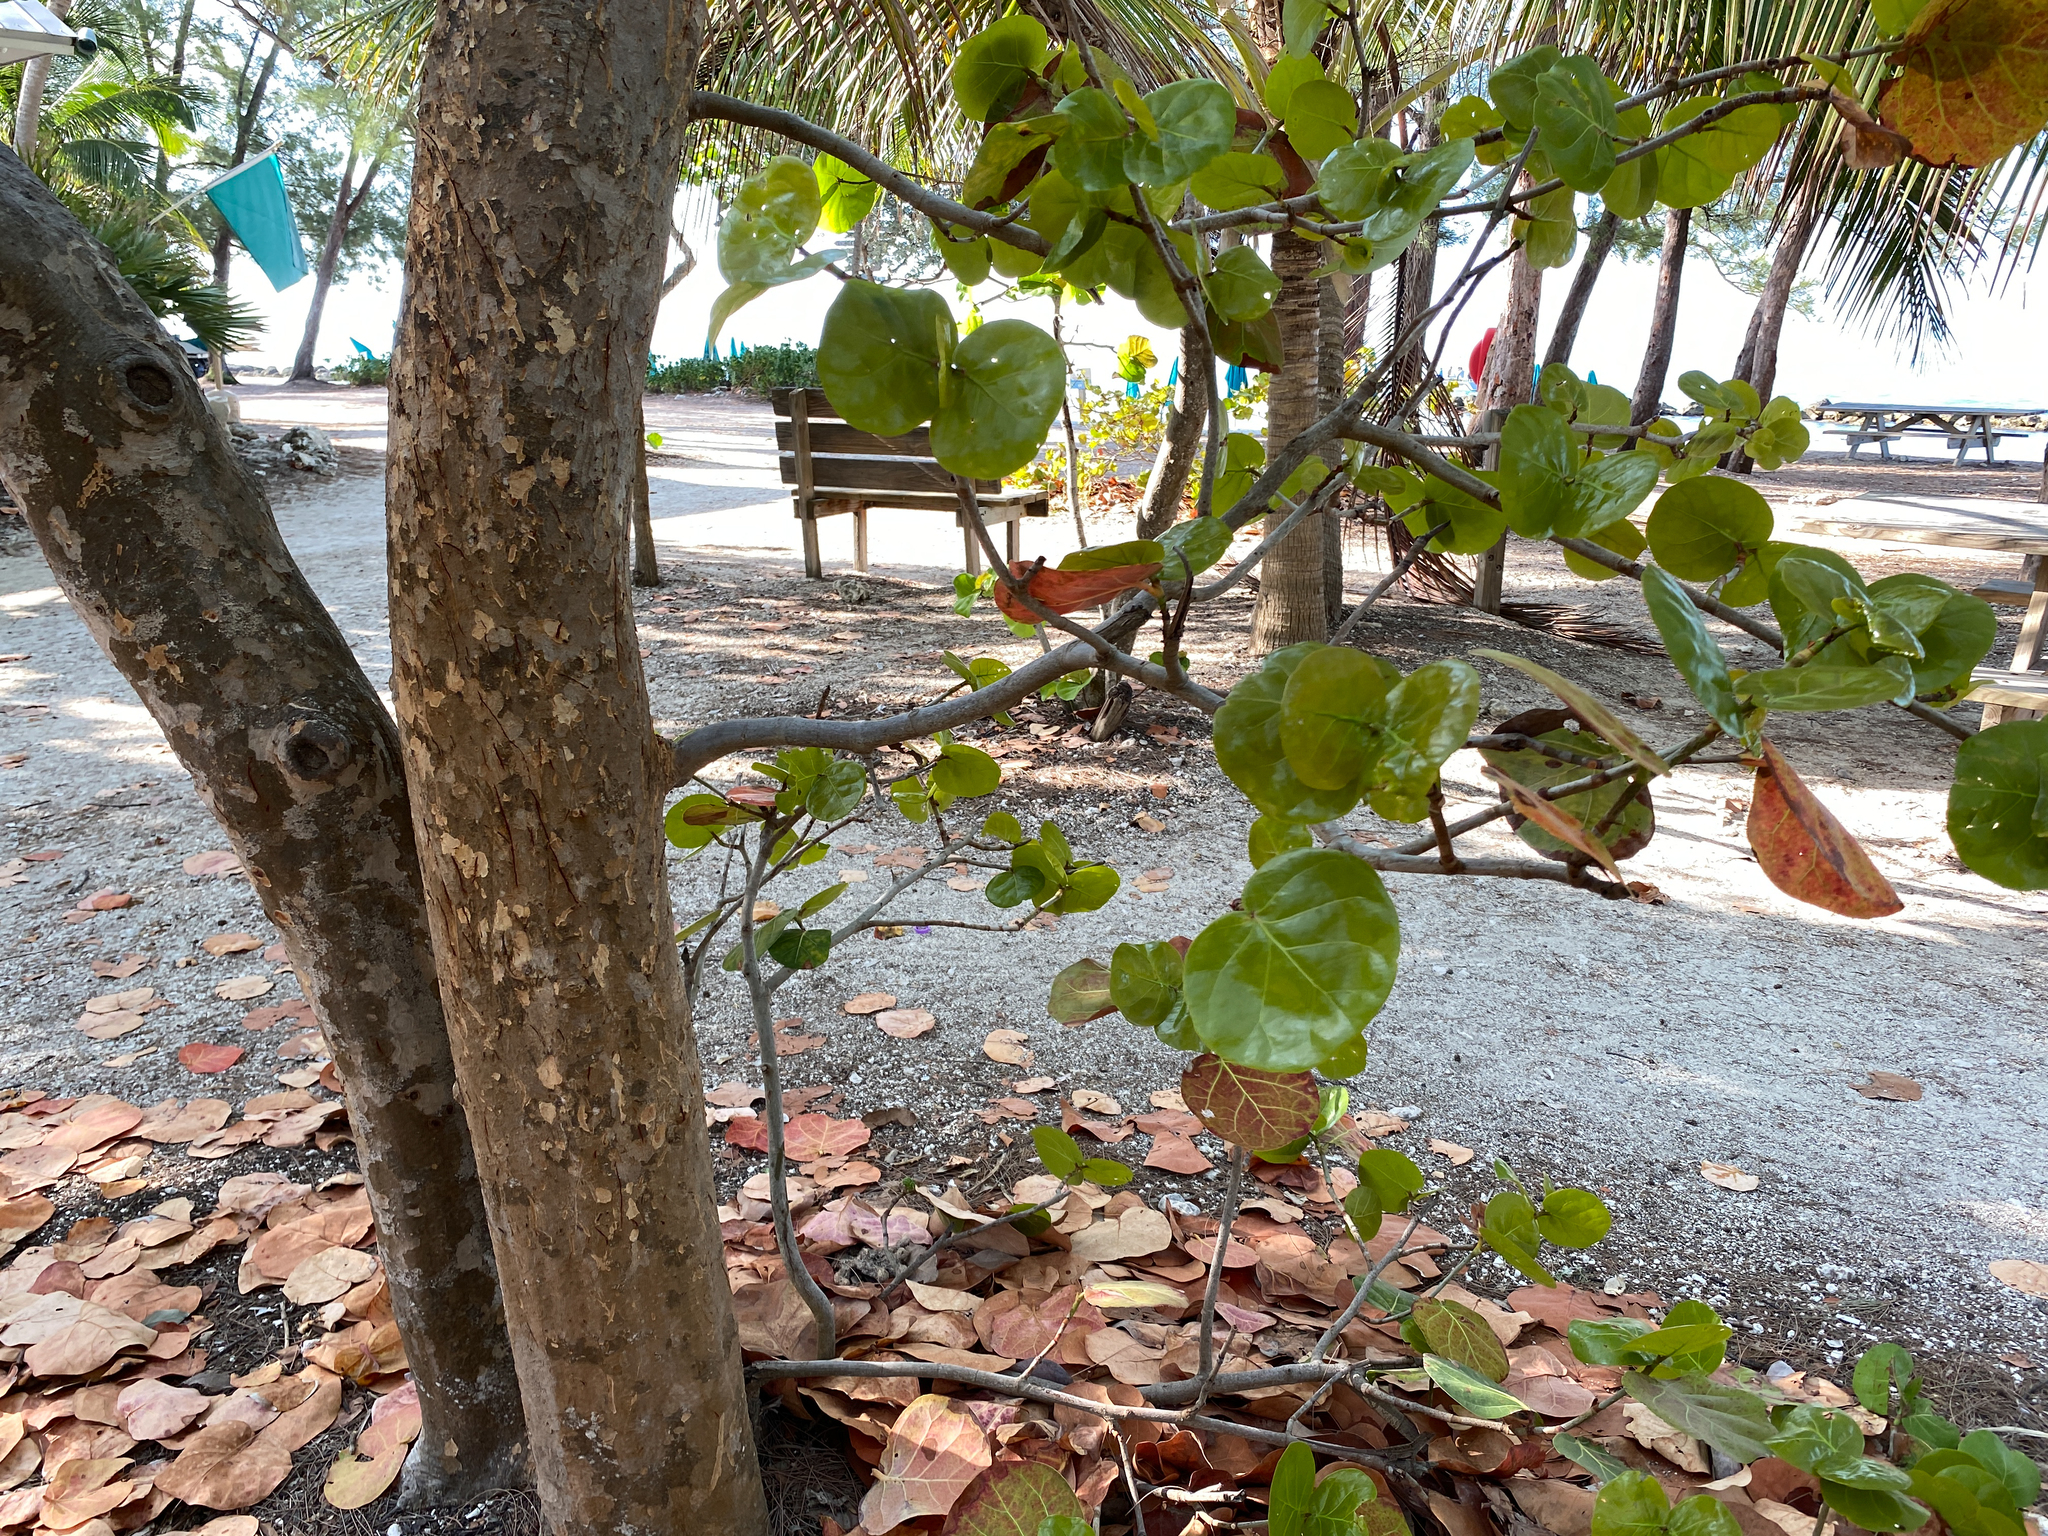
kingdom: Plantae
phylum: Tracheophyta
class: Magnoliopsida
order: Caryophyllales
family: Polygonaceae
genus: Coccoloba
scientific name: Coccoloba uvifera
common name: Seagrape
